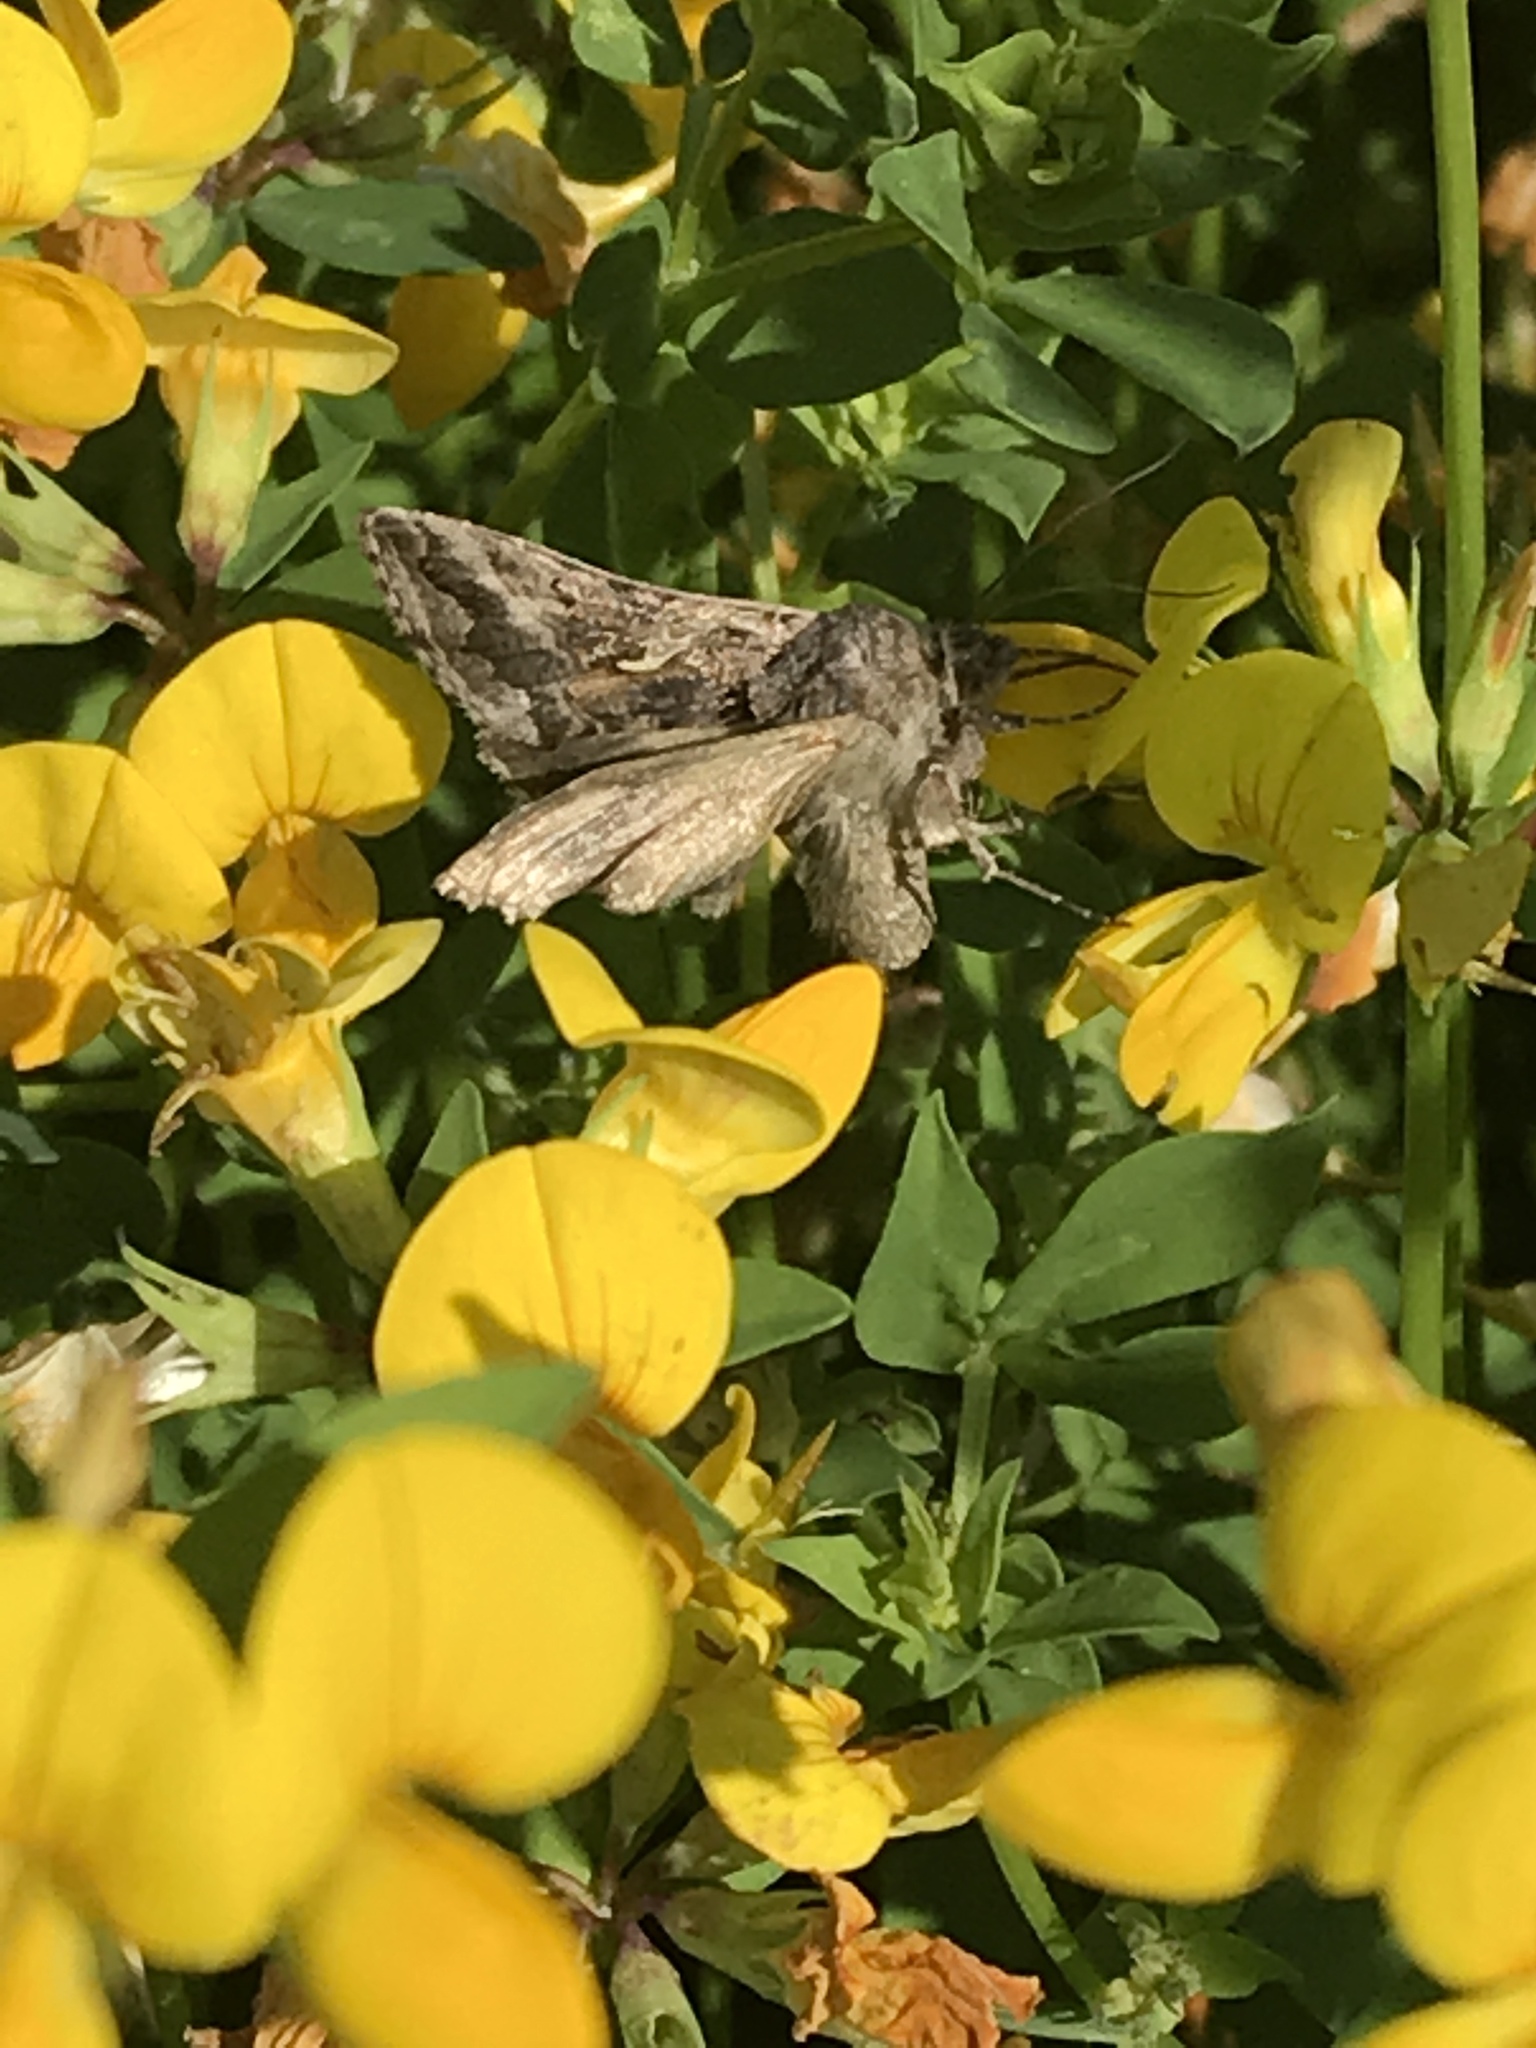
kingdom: Animalia
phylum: Arthropoda
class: Insecta
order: Lepidoptera
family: Noctuidae
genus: Autographa
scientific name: Autographa gamma
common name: Silver y
